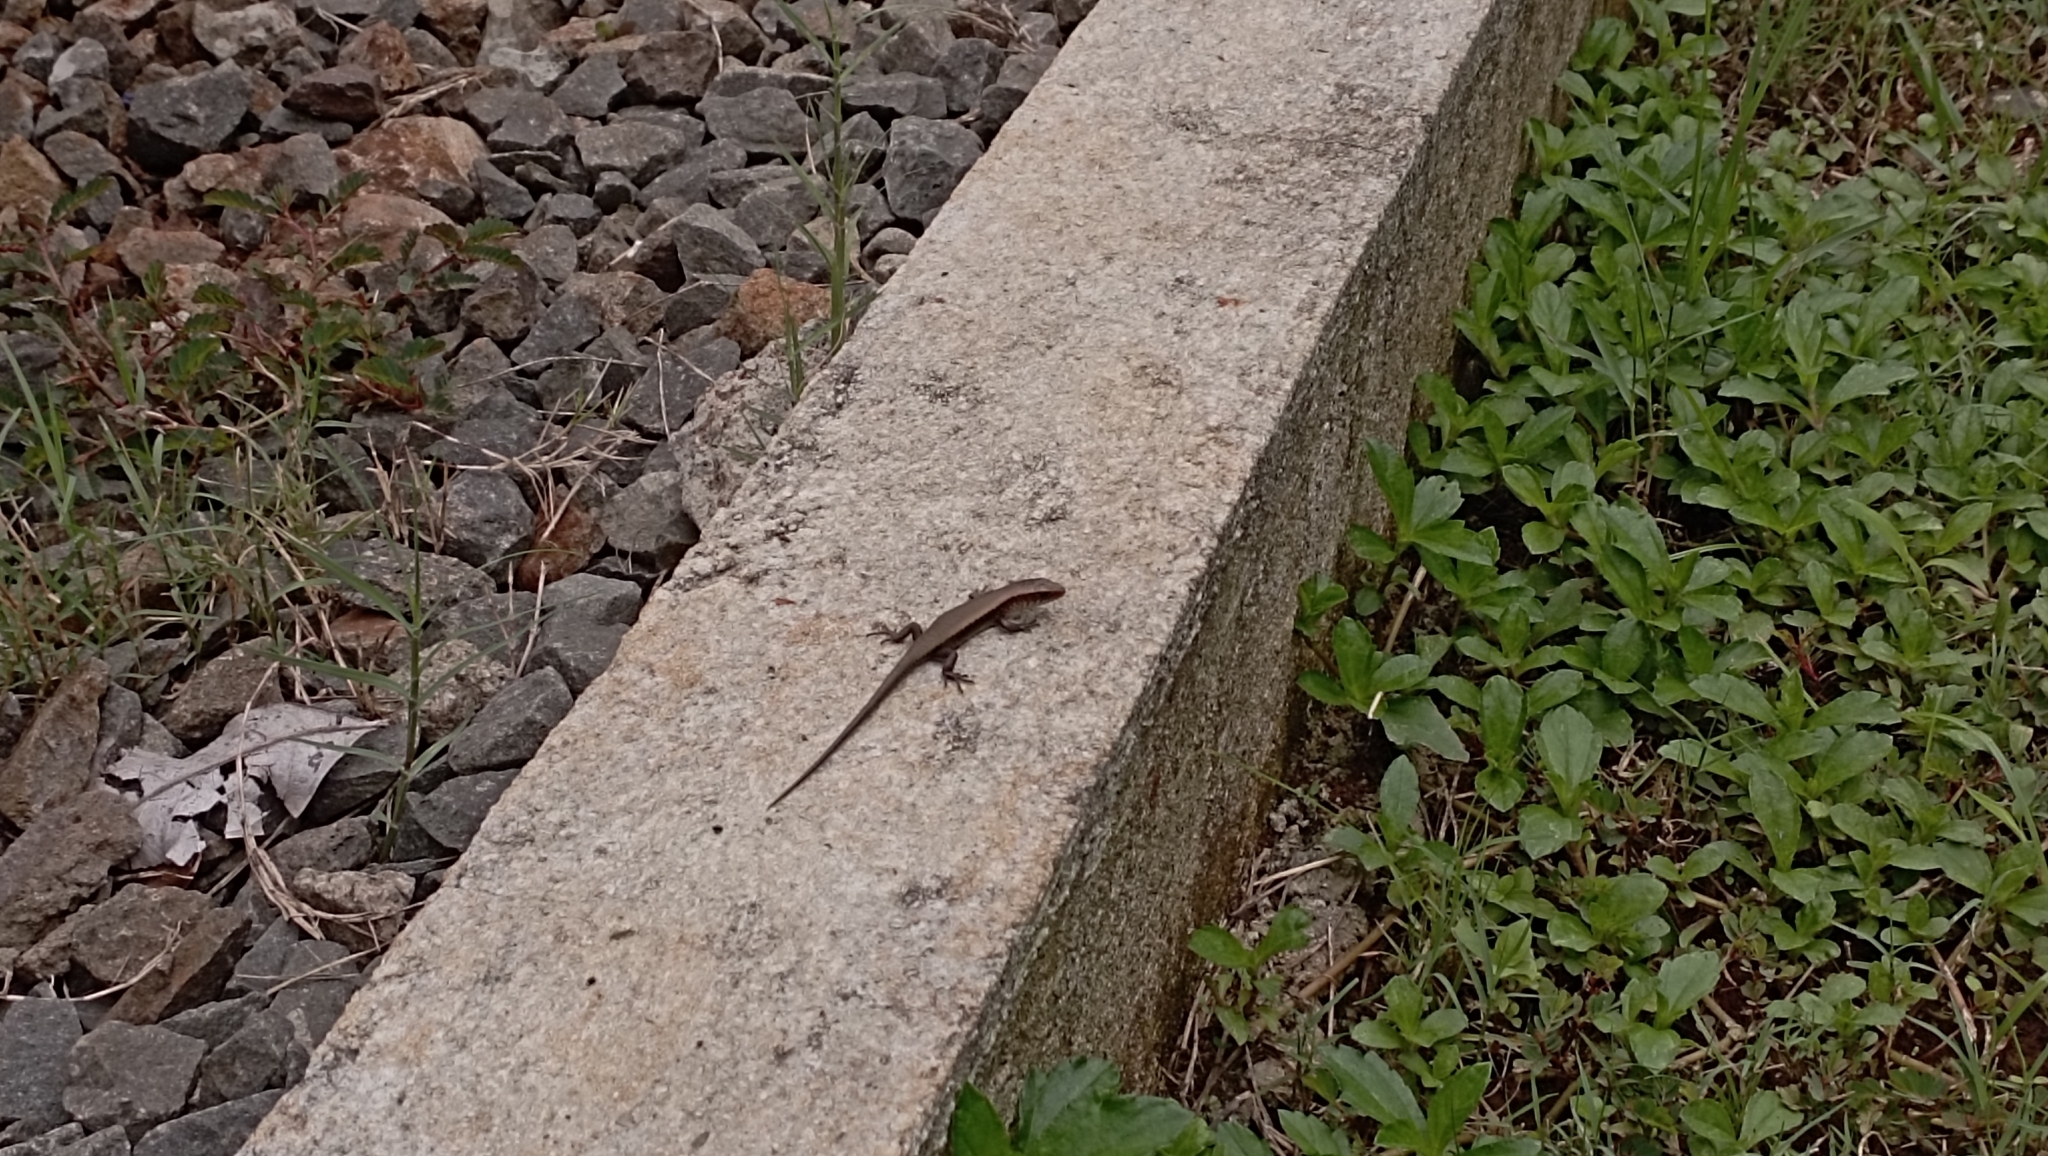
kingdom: Animalia
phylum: Chordata
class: Squamata
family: Scincidae
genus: Eutropis
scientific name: Eutropis multifasciata
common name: Common mabuya
